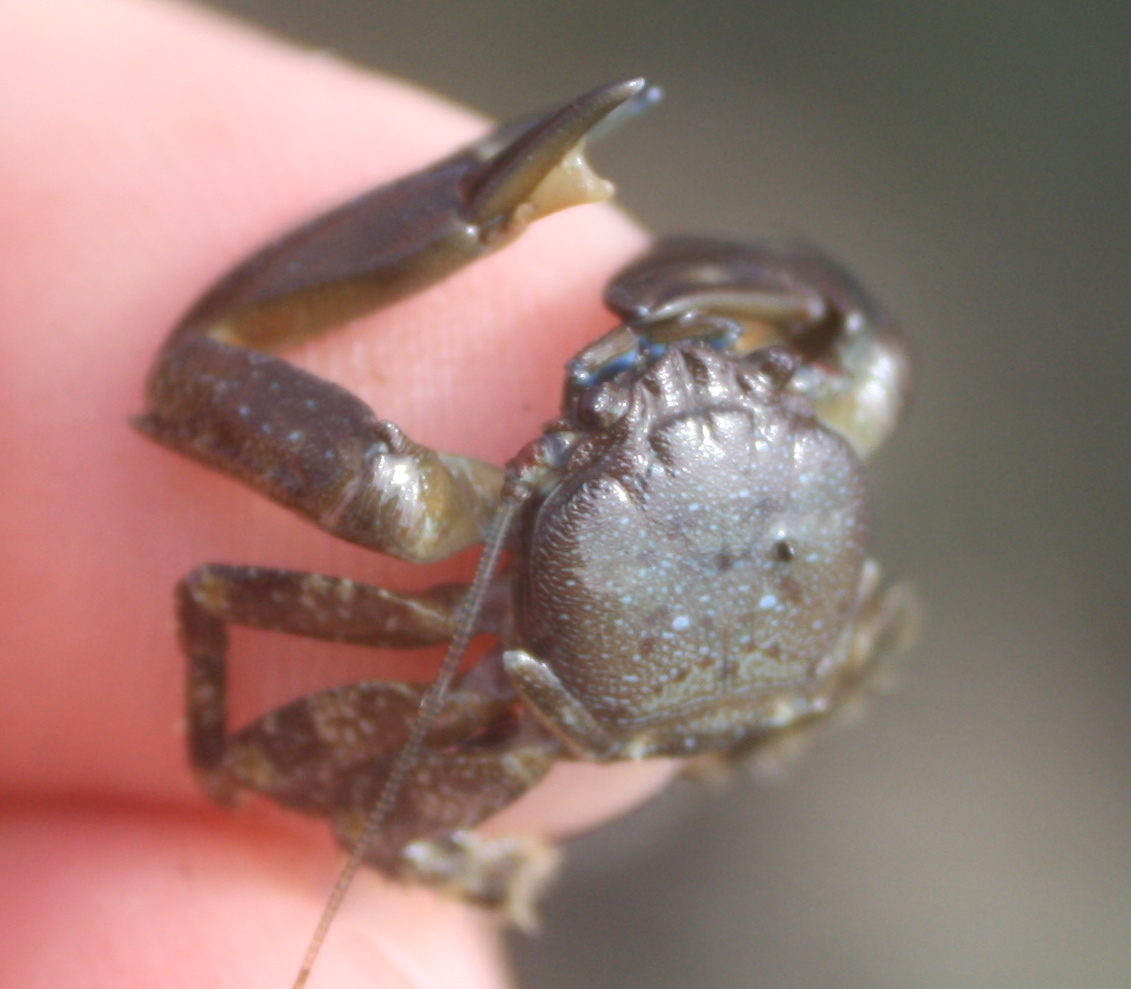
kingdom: Animalia
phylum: Arthropoda
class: Malacostraca
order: Decapoda
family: Porcellanidae
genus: Petrolisthes
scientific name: Petrolisthes eriomerus
